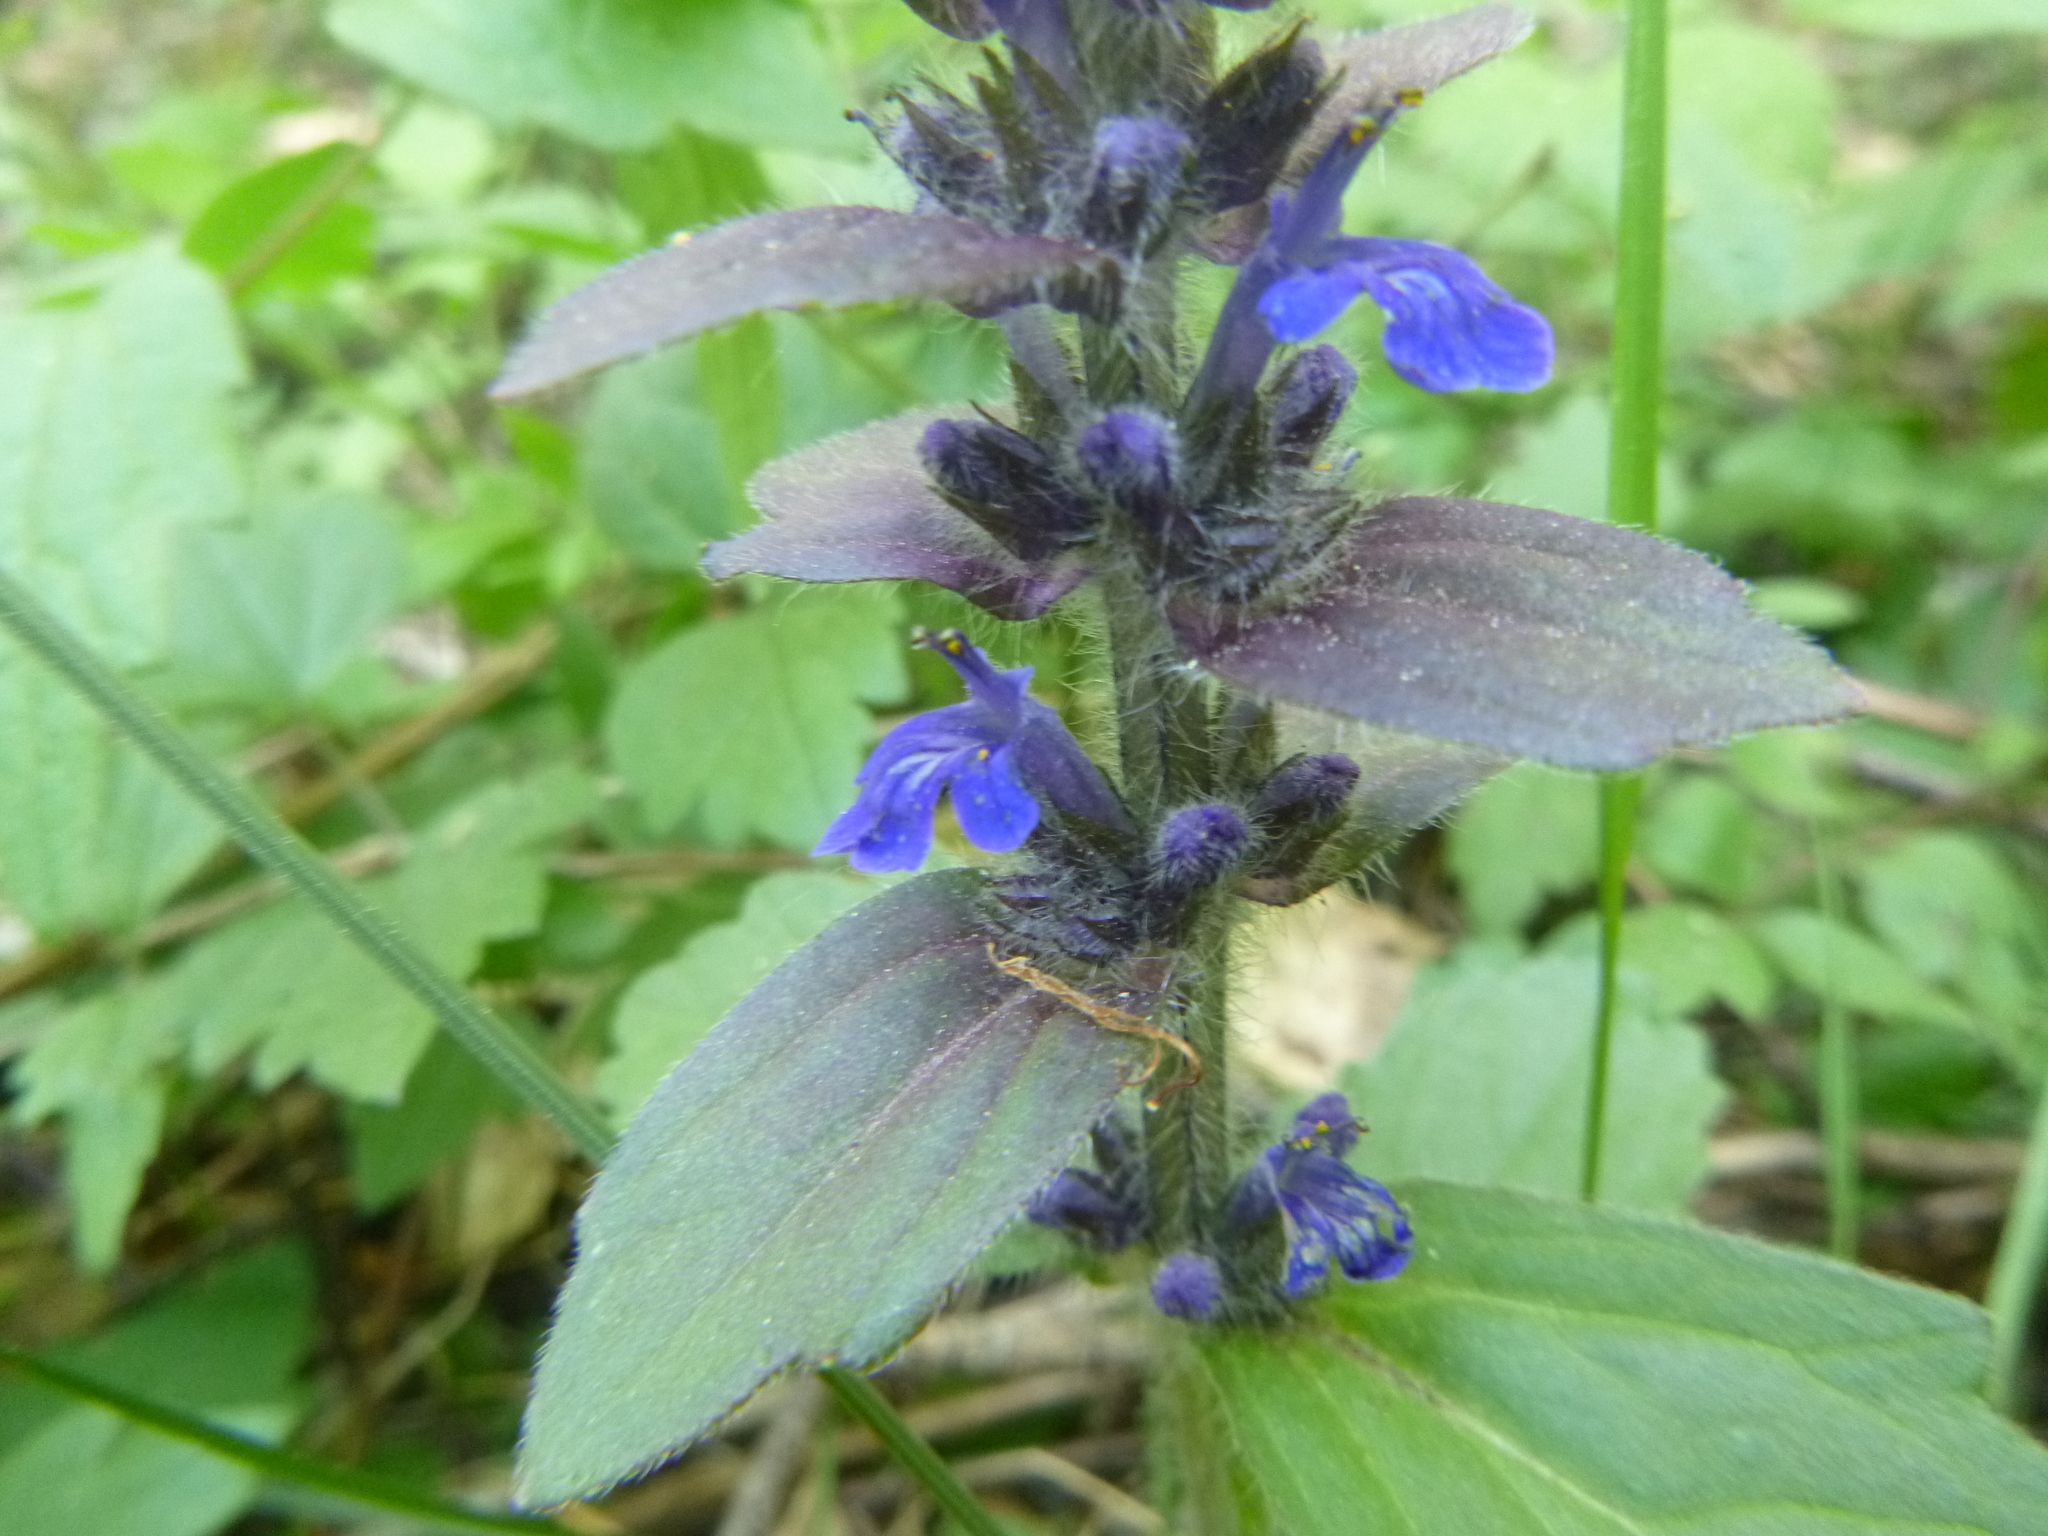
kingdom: Plantae
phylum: Tracheophyta
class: Magnoliopsida
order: Lamiales
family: Lamiaceae
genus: Ajuga
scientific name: Ajuga genevensis
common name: Blue bugle
